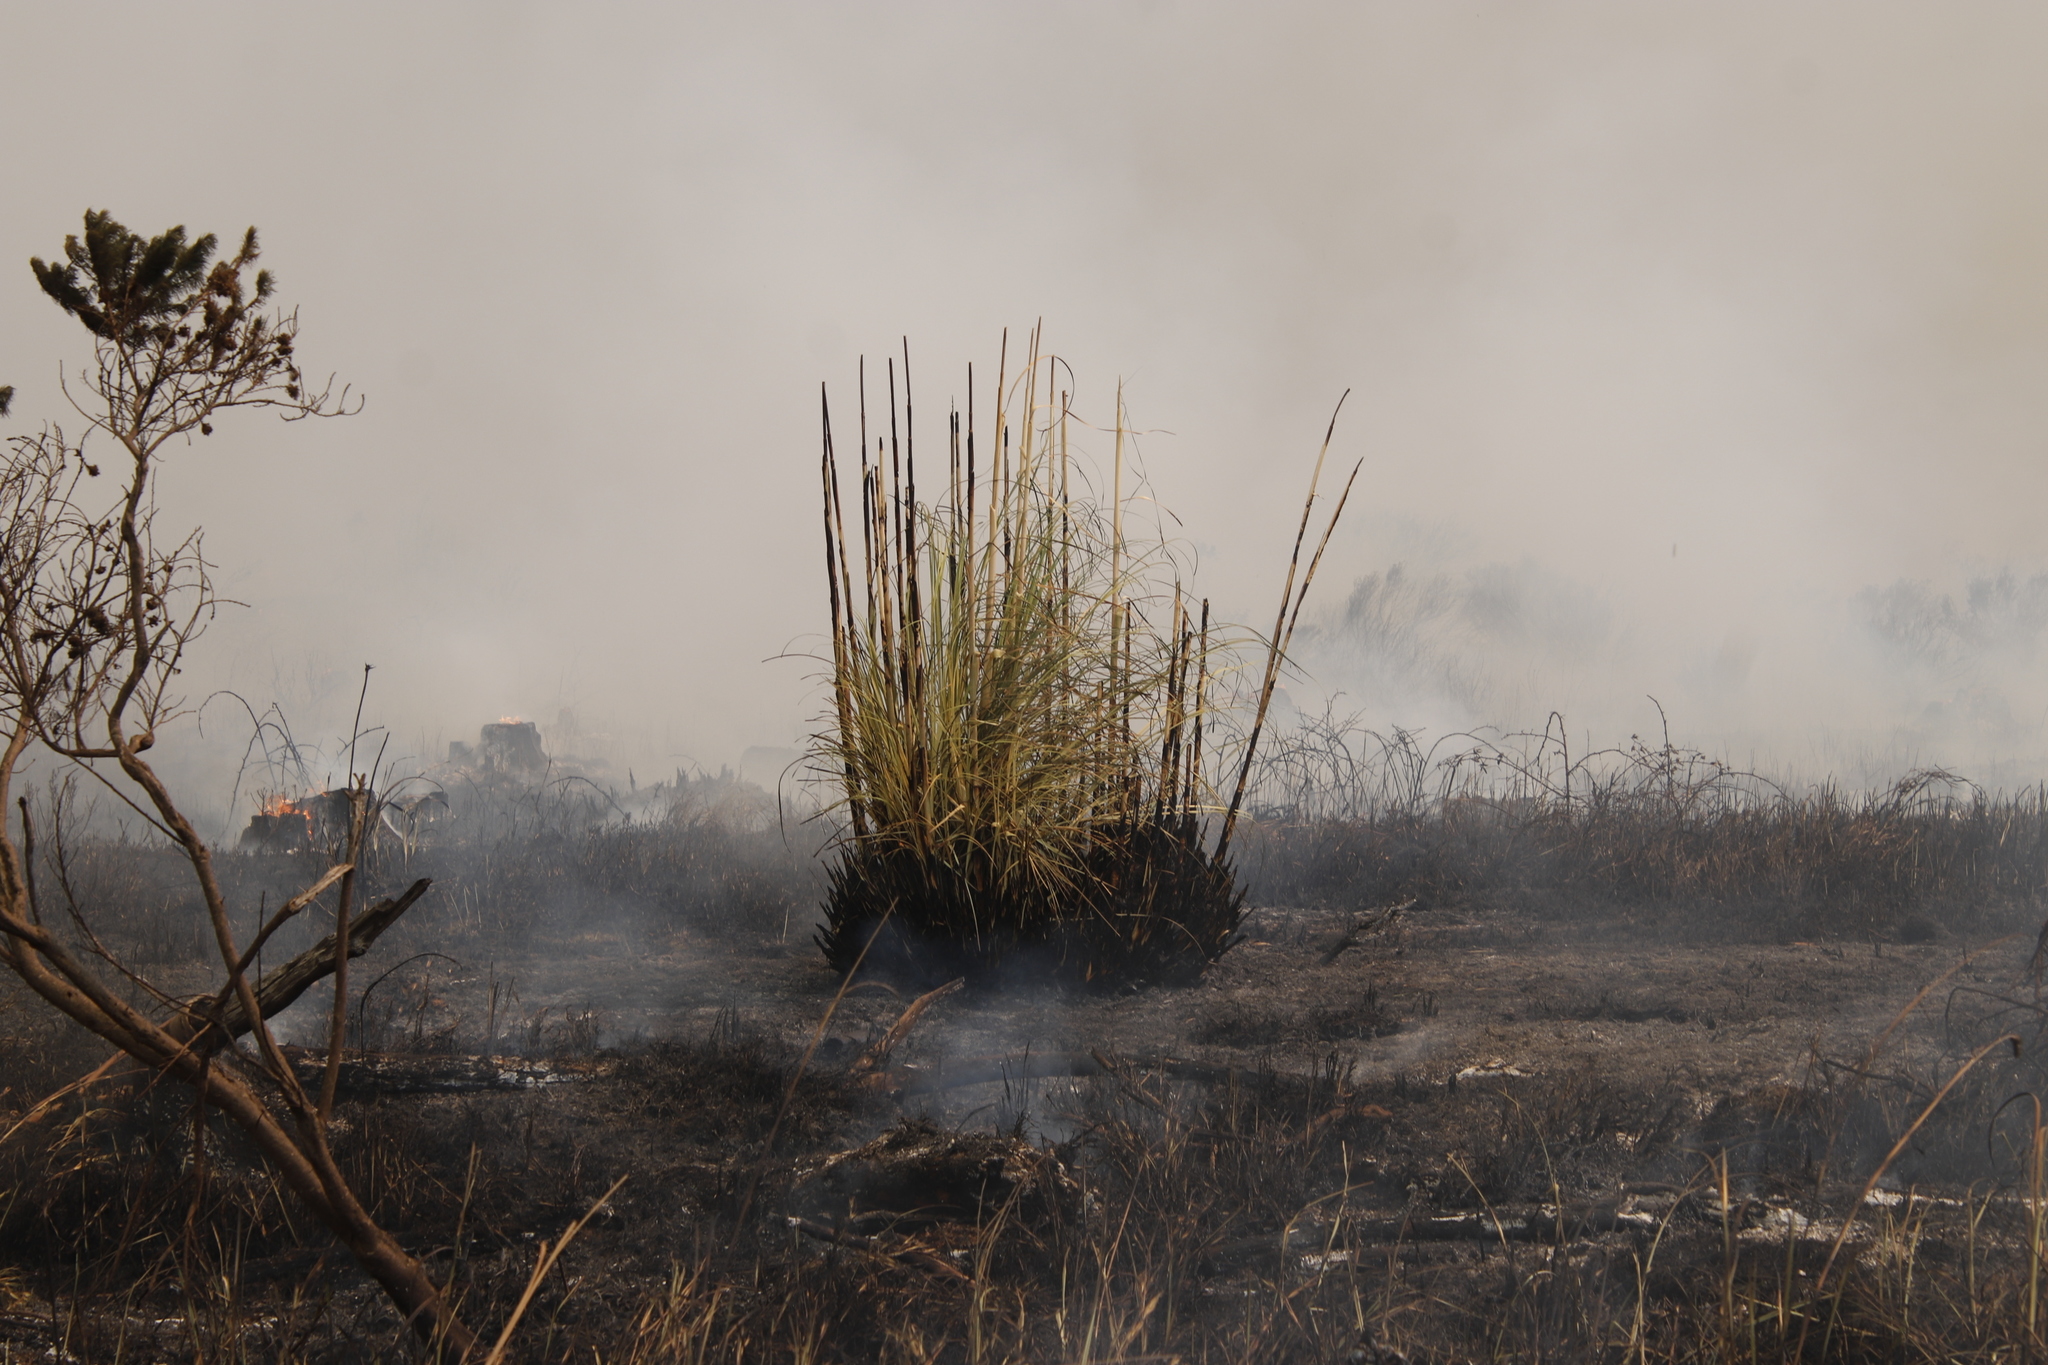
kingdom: Plantae
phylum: Tracheophyta
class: Liliopsida
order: Poales
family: Poaceae
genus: Cortaderia
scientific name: Cortaderia selloana
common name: Uruguayan pampas grass
